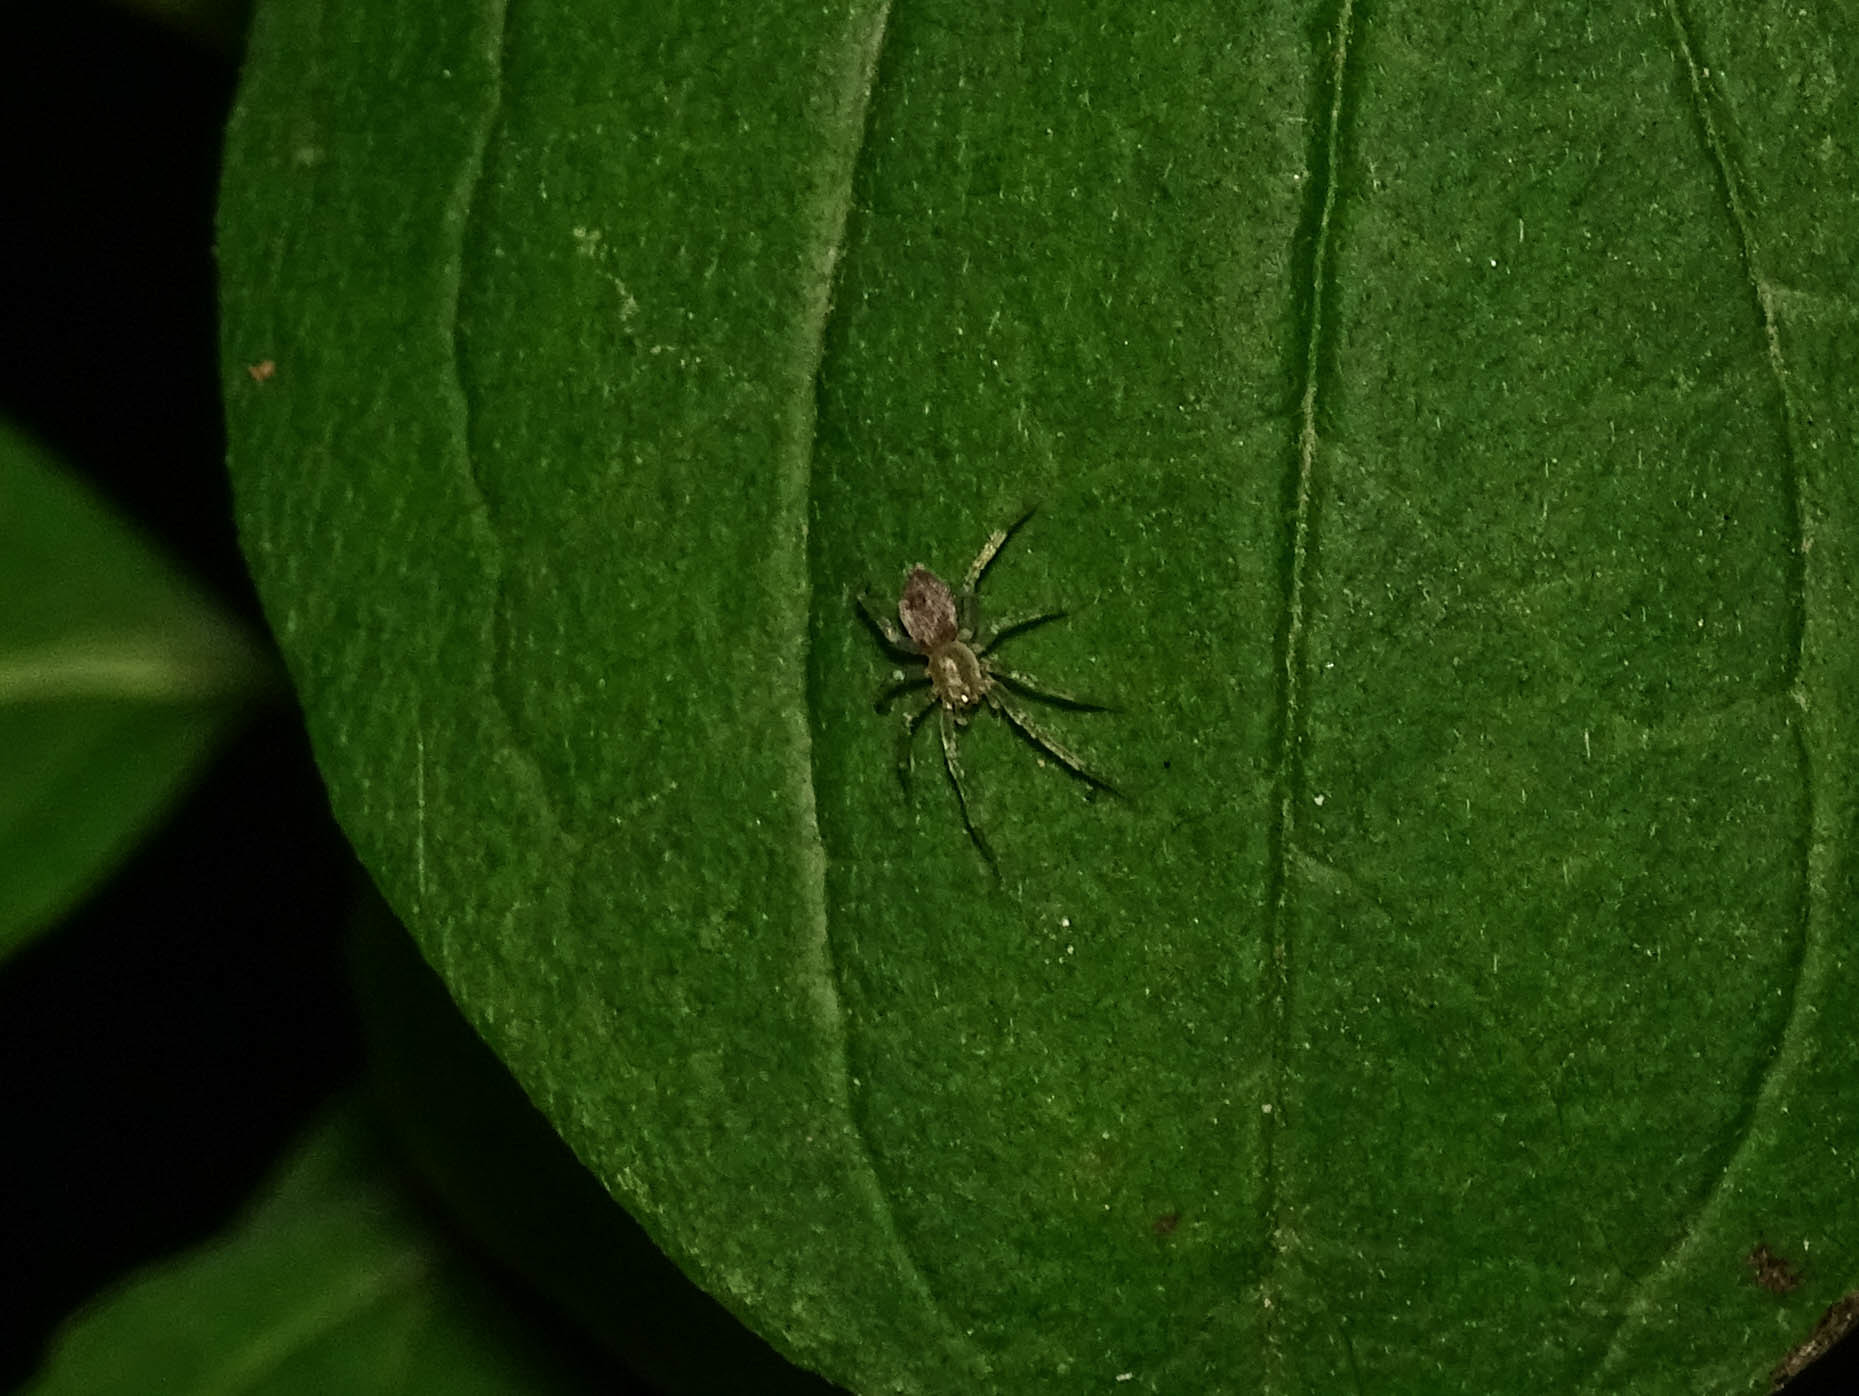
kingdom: Animalia
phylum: Arthropoda
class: Arachnida
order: Araneae
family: Anyphaenidae
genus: Anyphaena
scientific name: Anyphaena accentuata
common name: Buzzing spider
